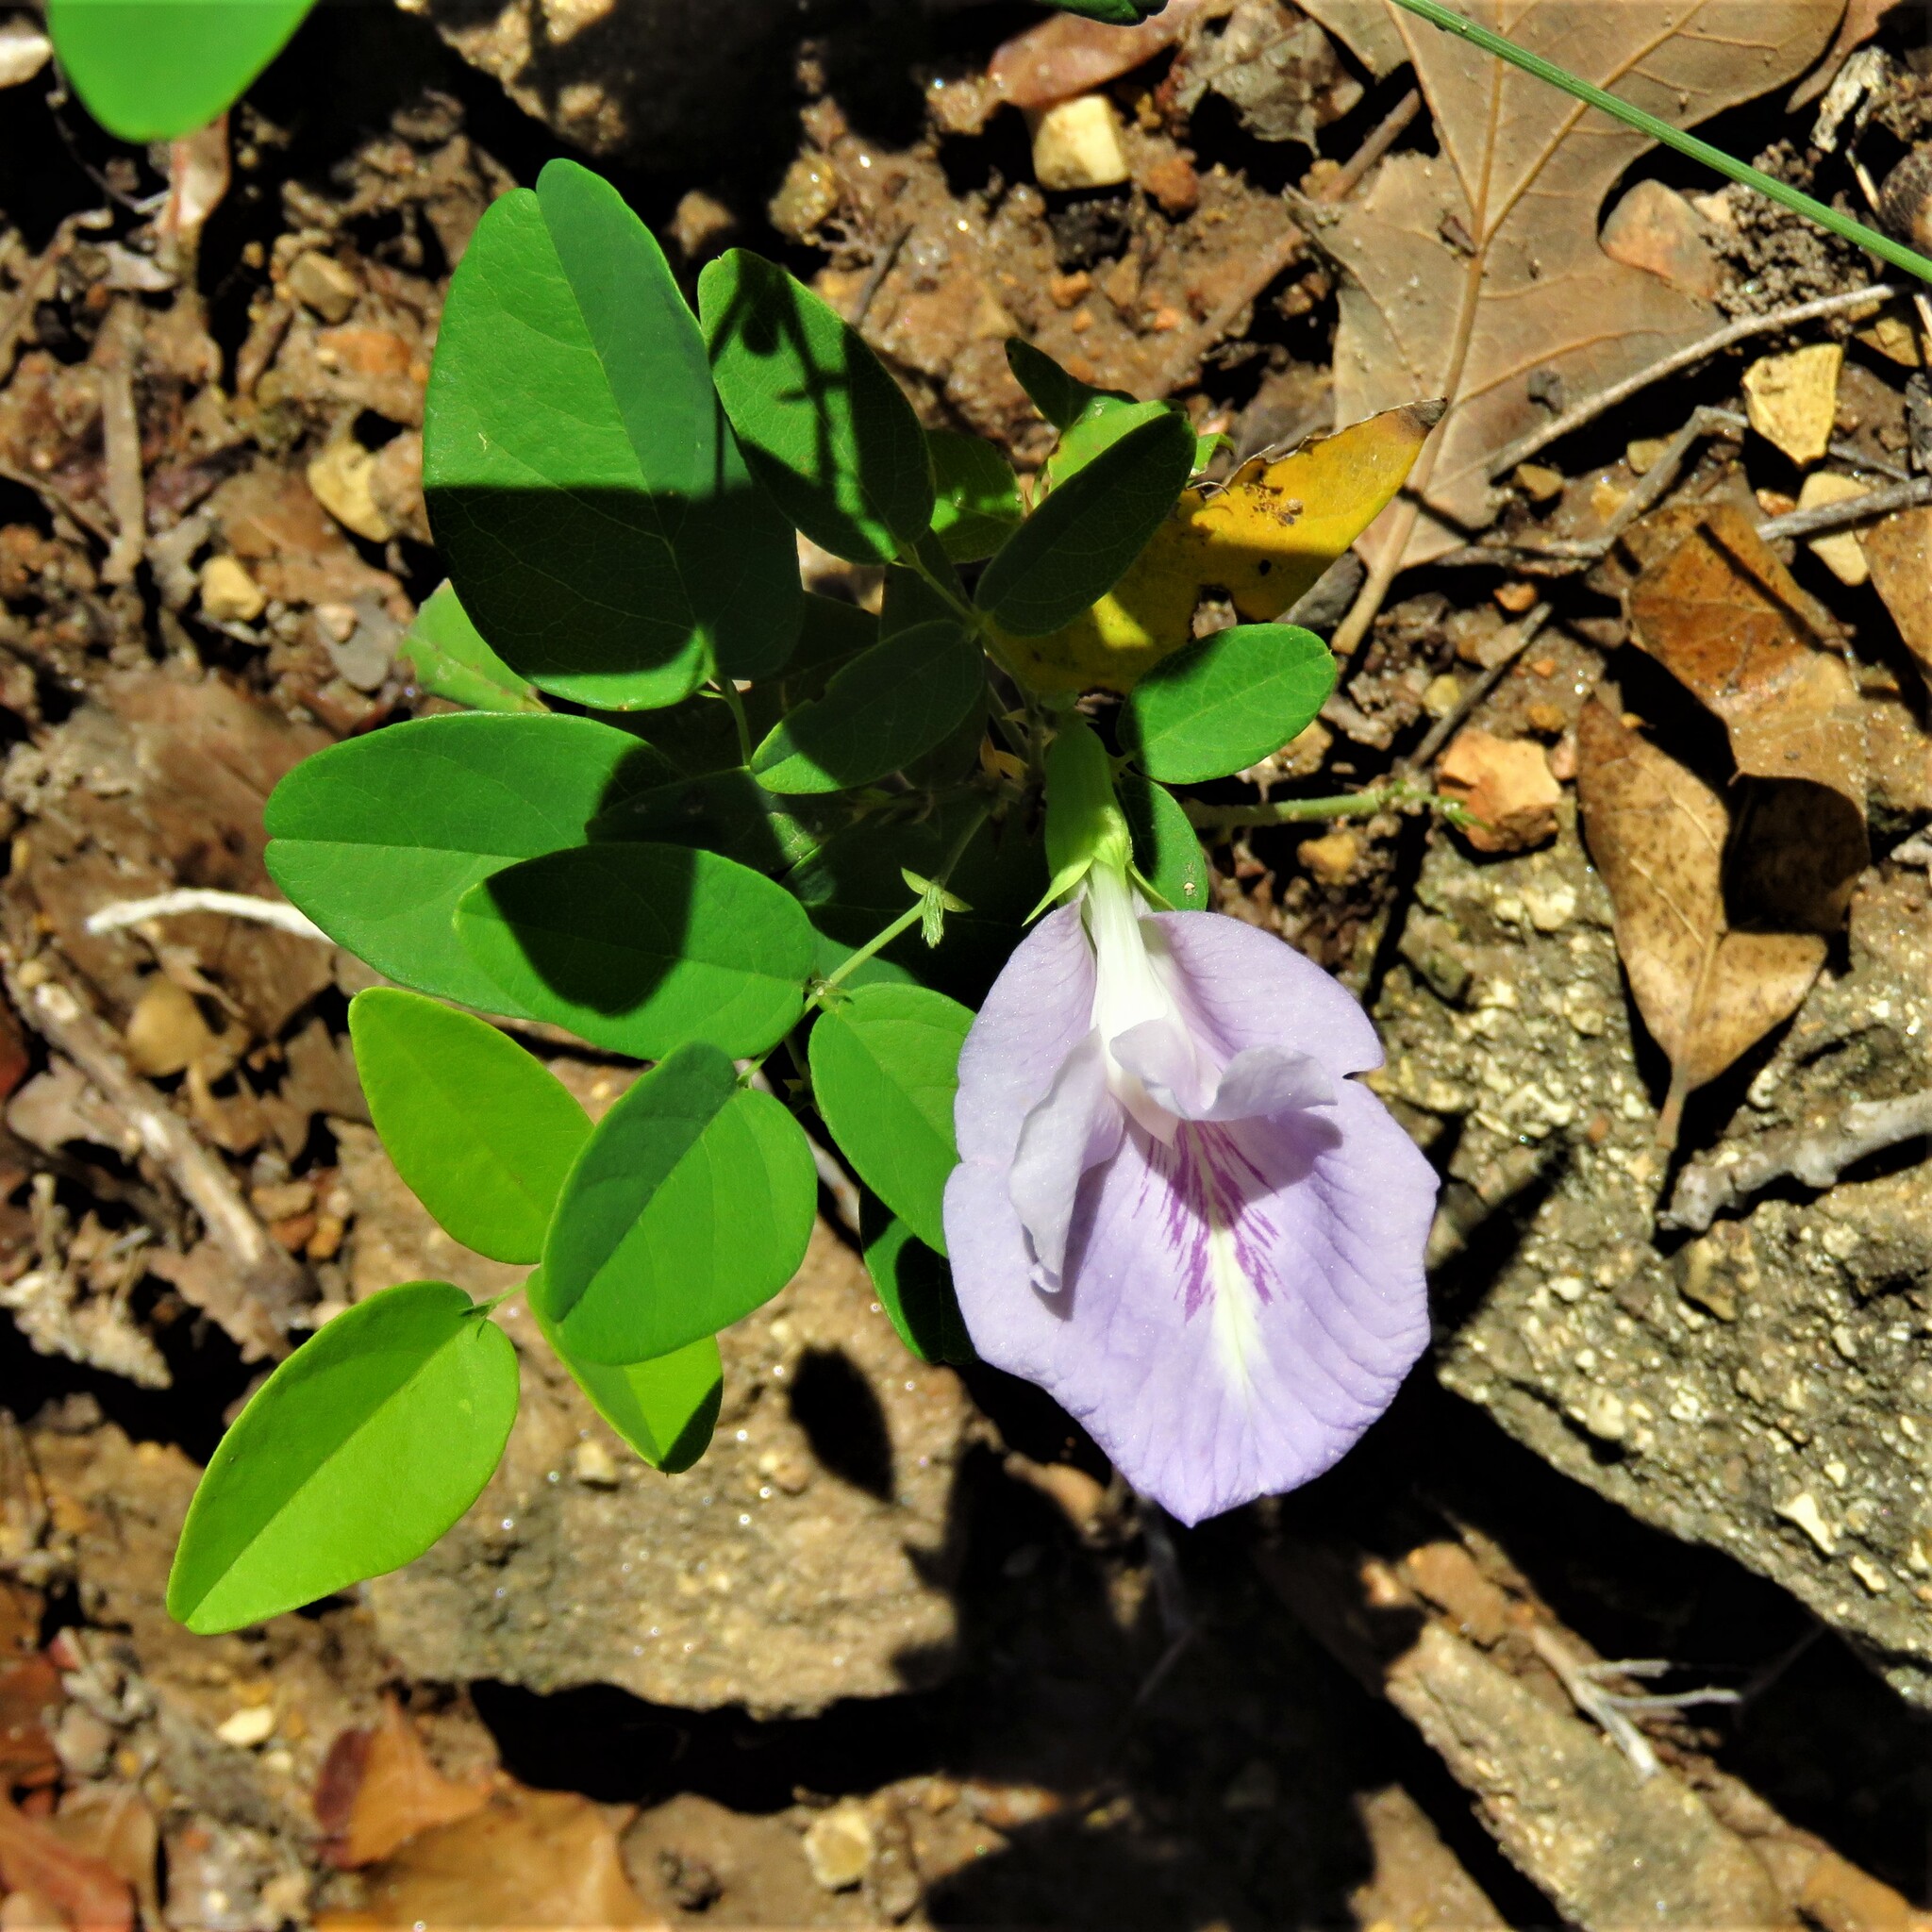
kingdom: Plantae
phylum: Tracheophyta
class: Magnoliopsida
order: Fabales
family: Fabaceae
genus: Clitoria
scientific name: Clitoria mariana
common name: Butterfly-pea
